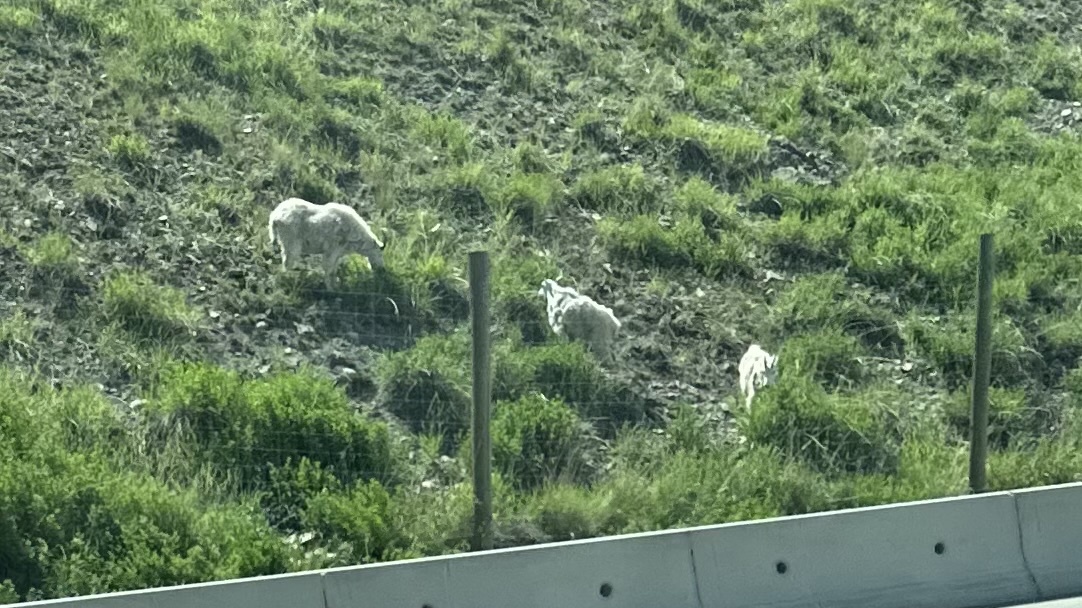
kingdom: Animalia
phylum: Chordata
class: Mammalia
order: Artiodactyla
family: Bovidae
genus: Oreamnos
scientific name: Oreamnos americanus
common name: Mountain goat
